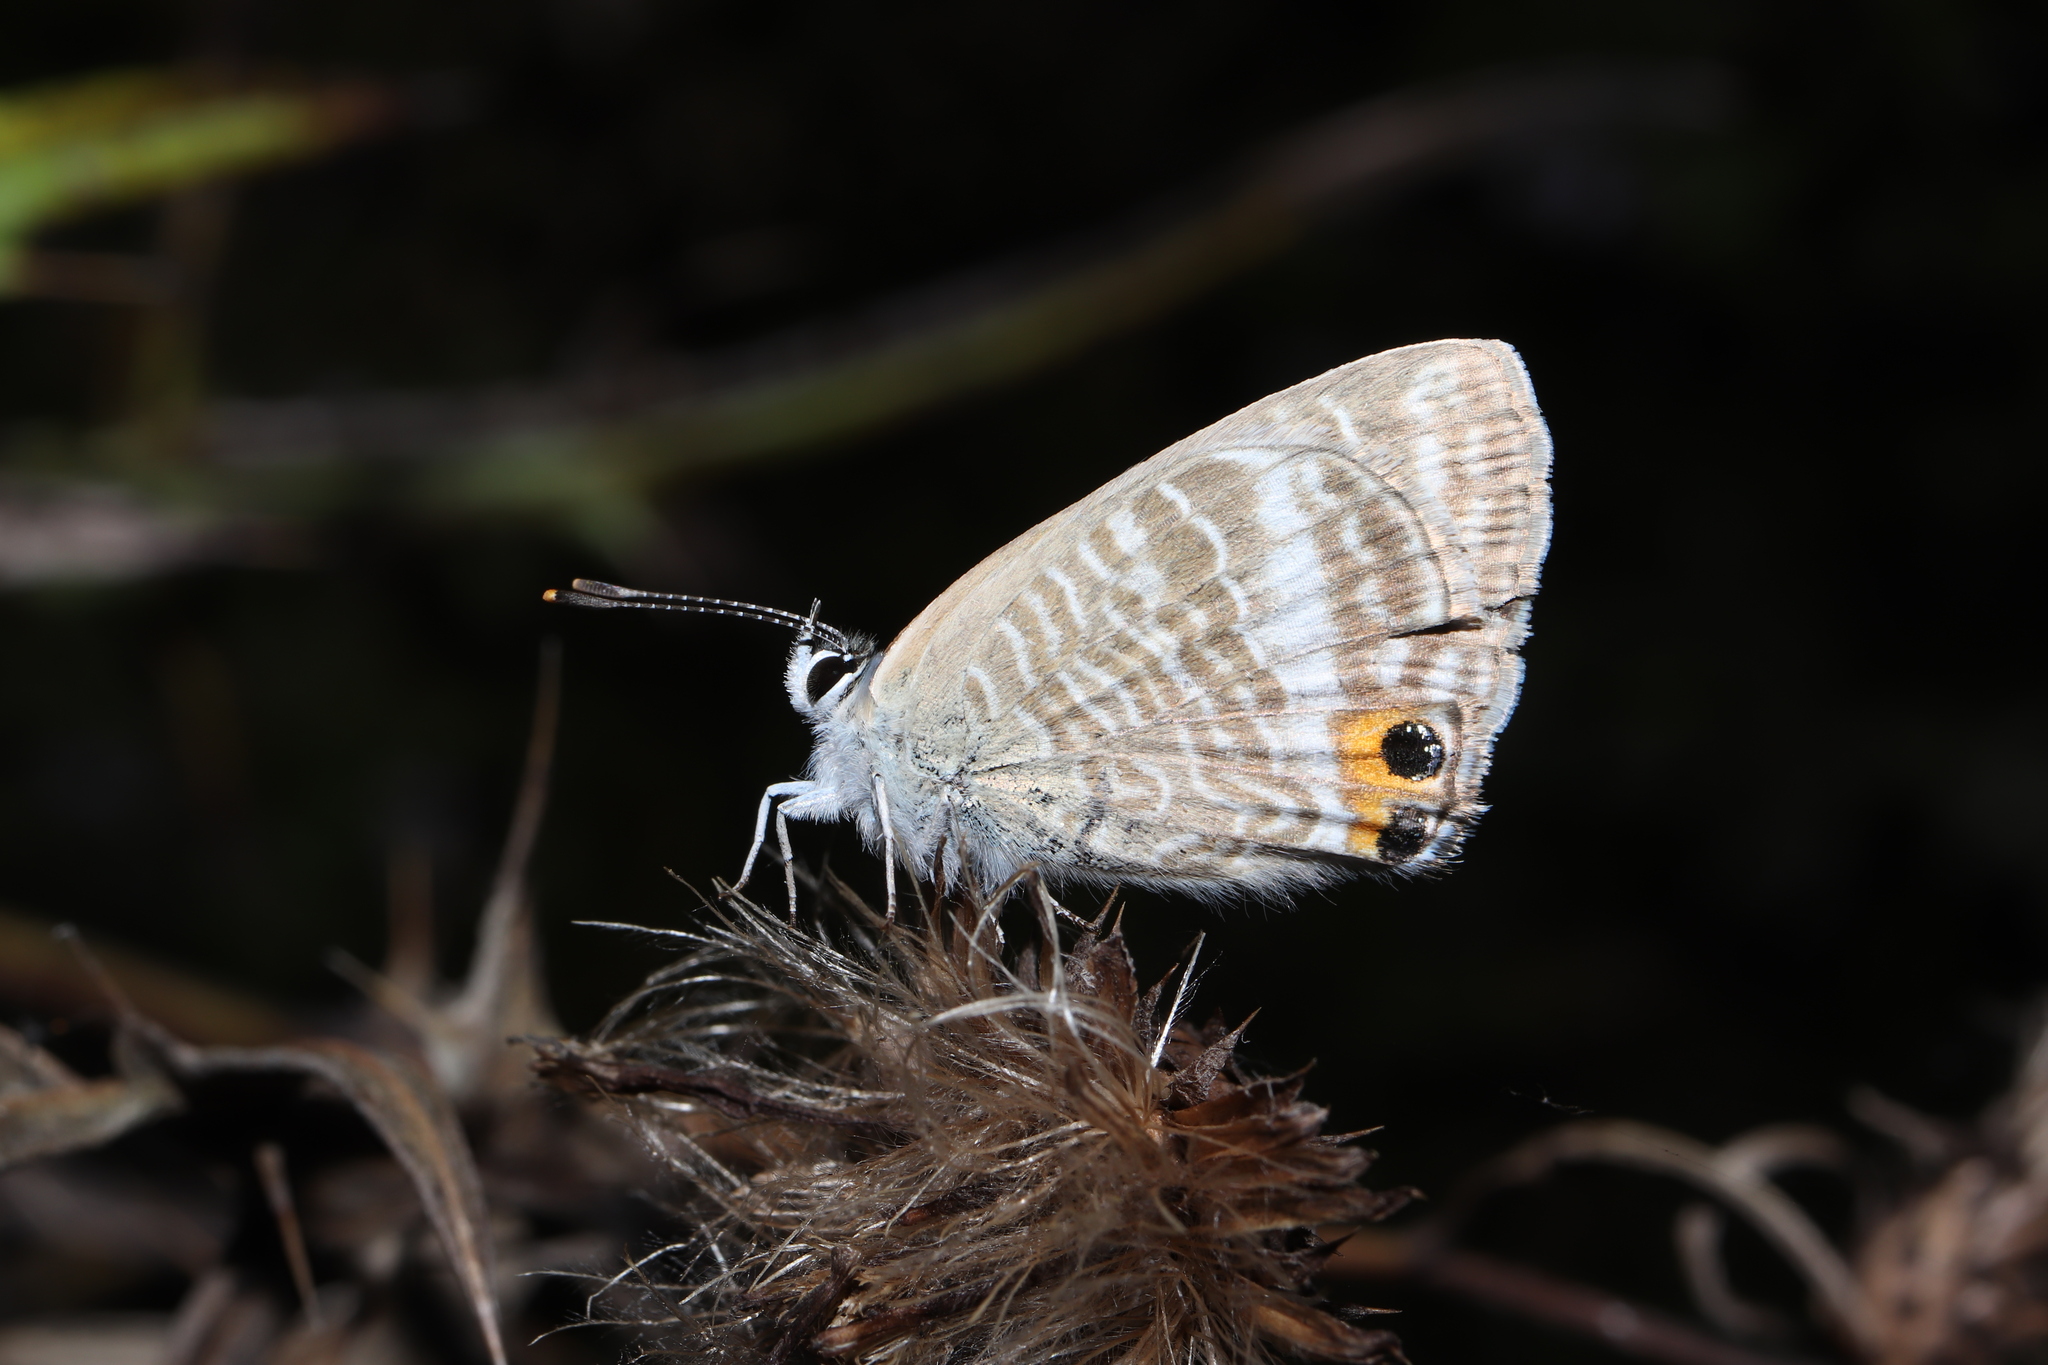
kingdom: Animalia
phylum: Arthropoda
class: Insecta
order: Lepidoptera
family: Lycaenidae
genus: Lampides
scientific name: Lampides boeticus
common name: Long-tailed blue
